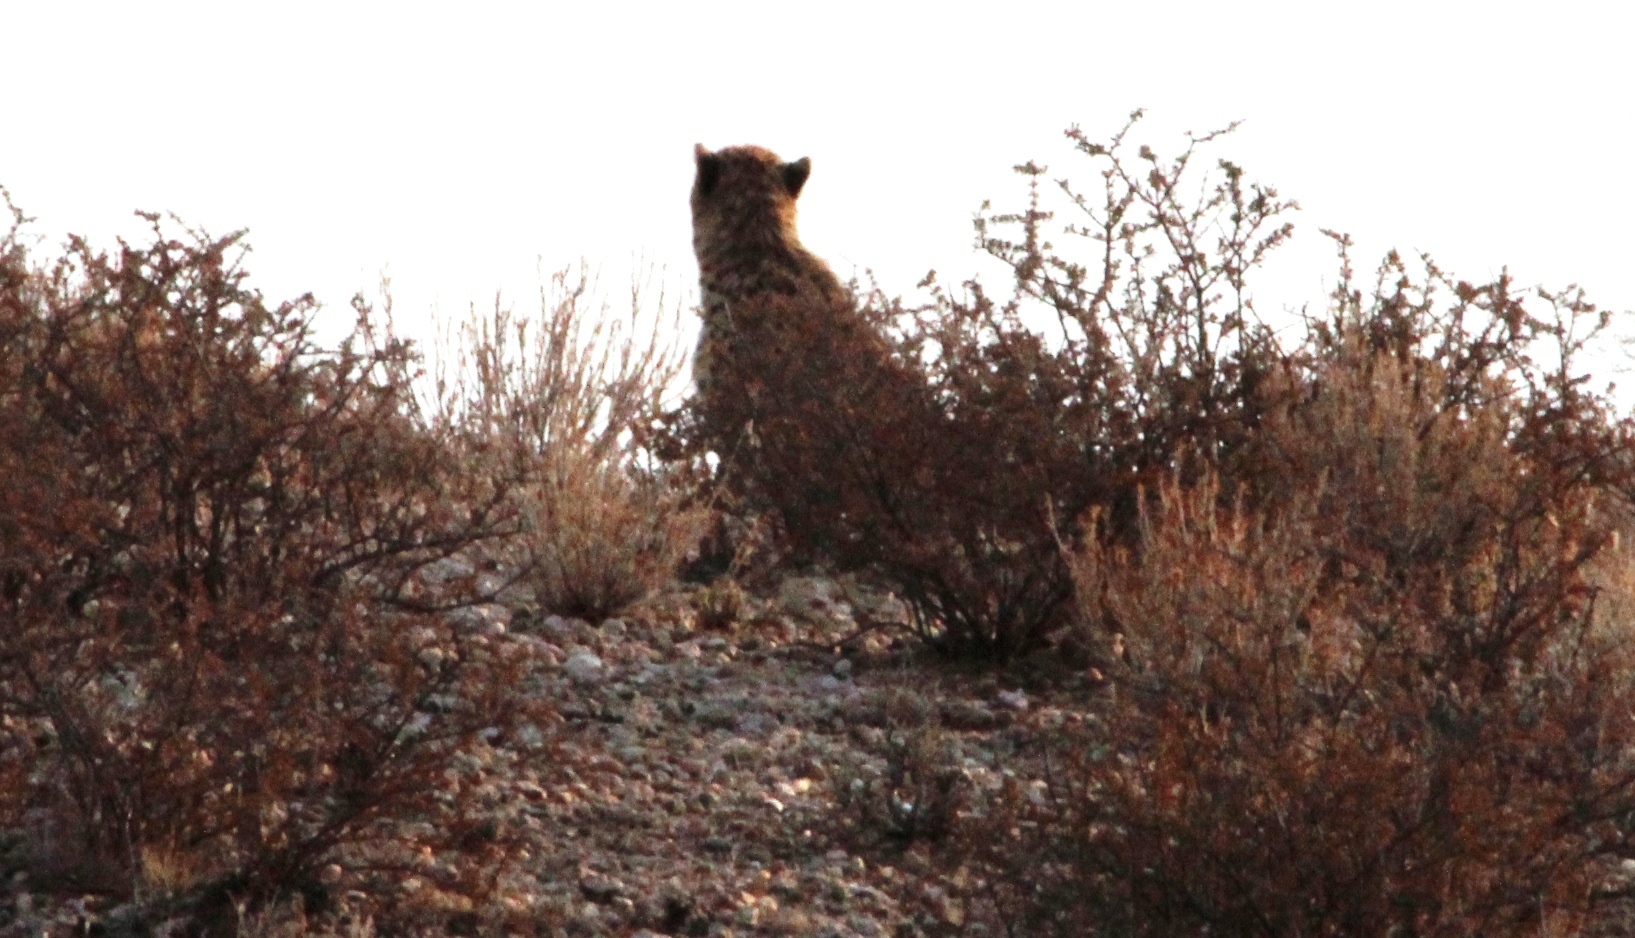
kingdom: Animalia
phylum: Chordata
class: Mammalia
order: Carnivora
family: Felidae
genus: Acinonyx
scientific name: Acinonyx jubatus
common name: Cheetah
